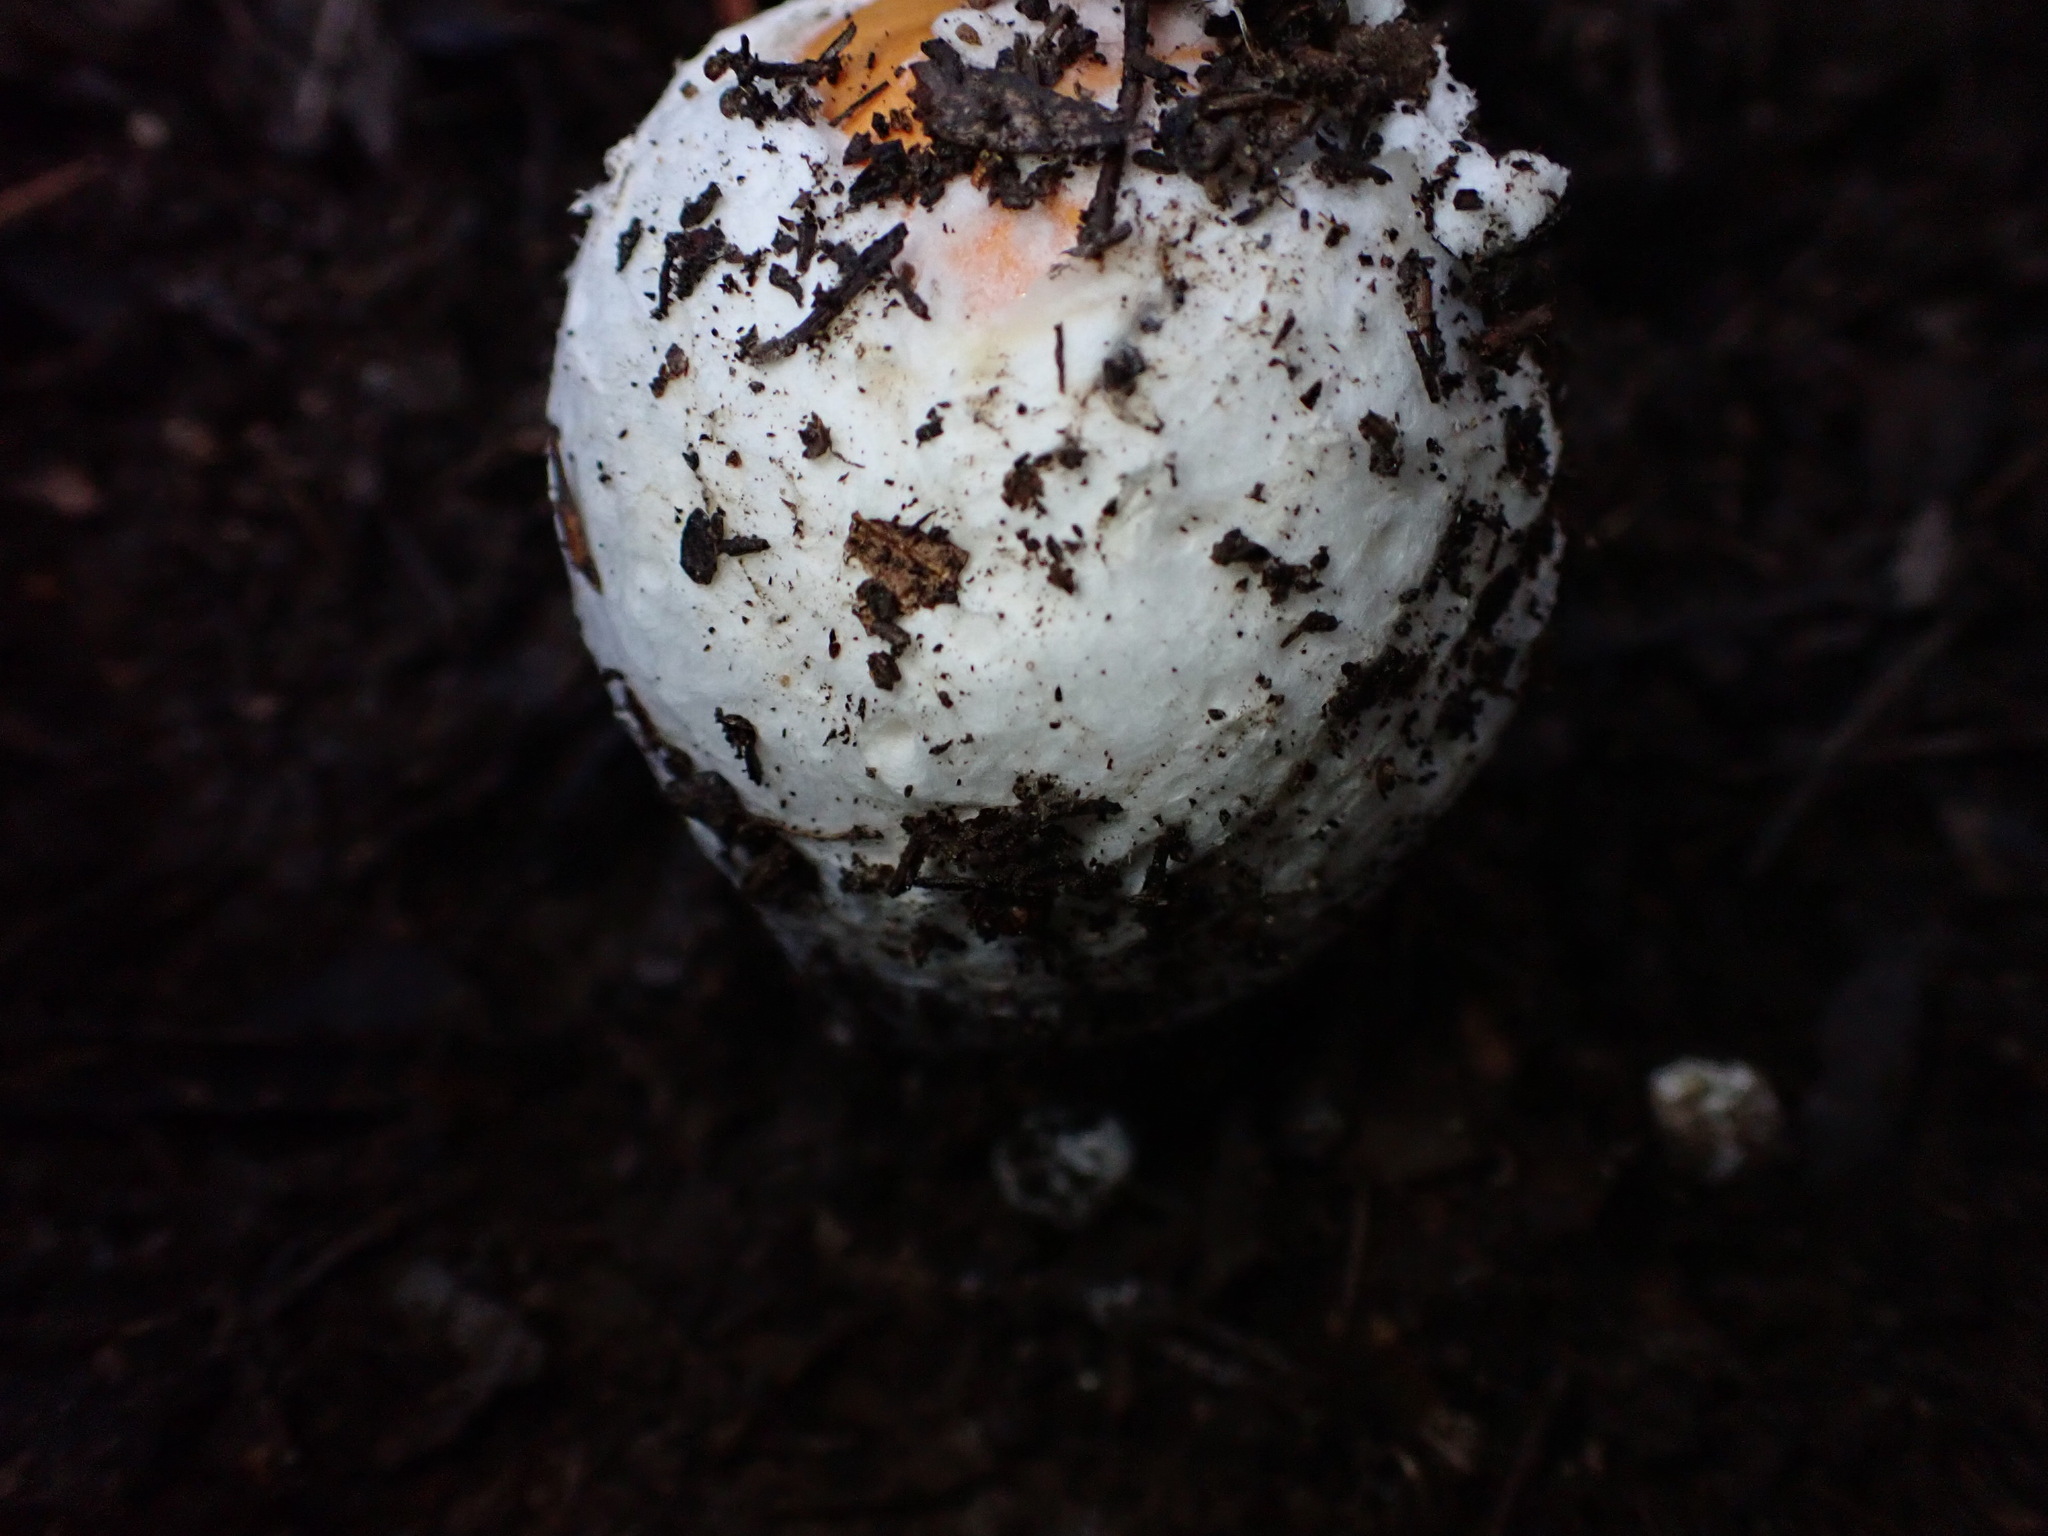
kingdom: Fungi
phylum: Basidiomycota
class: Agaricomycetes
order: Agaricales
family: Amanitaceae
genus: Amanita
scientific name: Amanita caesarea
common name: Caesar's amanita
